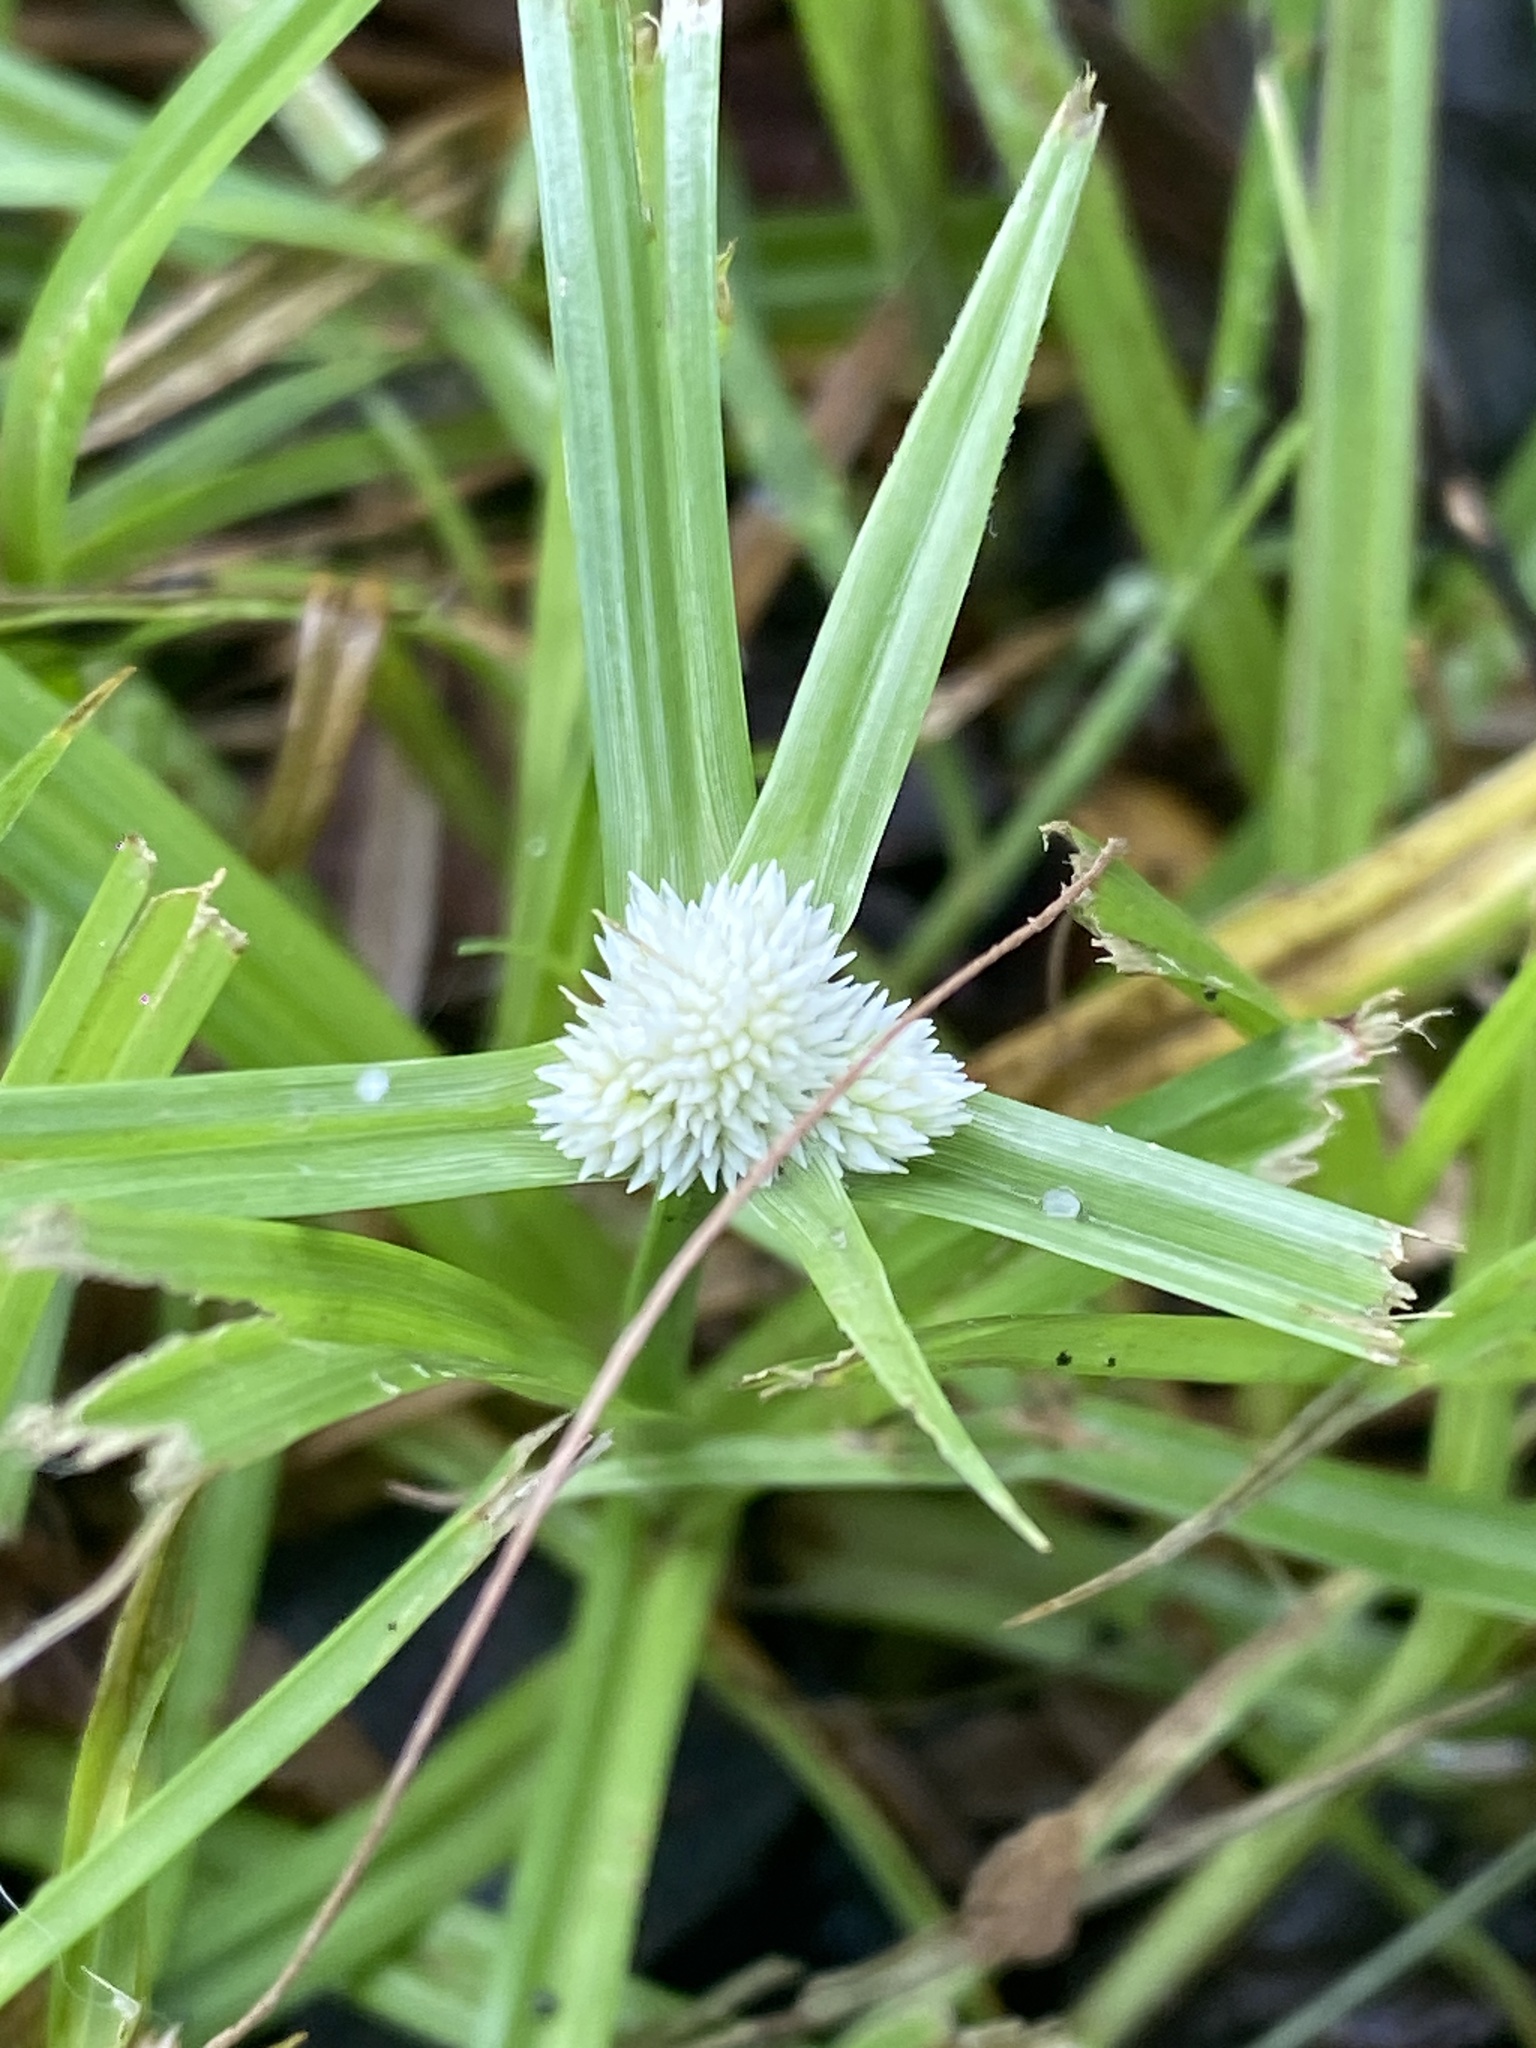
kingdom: Plantae
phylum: Tracheophyta
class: Liliopsida
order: Poales
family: Cyperaceae
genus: Cyperus
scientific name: Cyperus sesquiflorus
